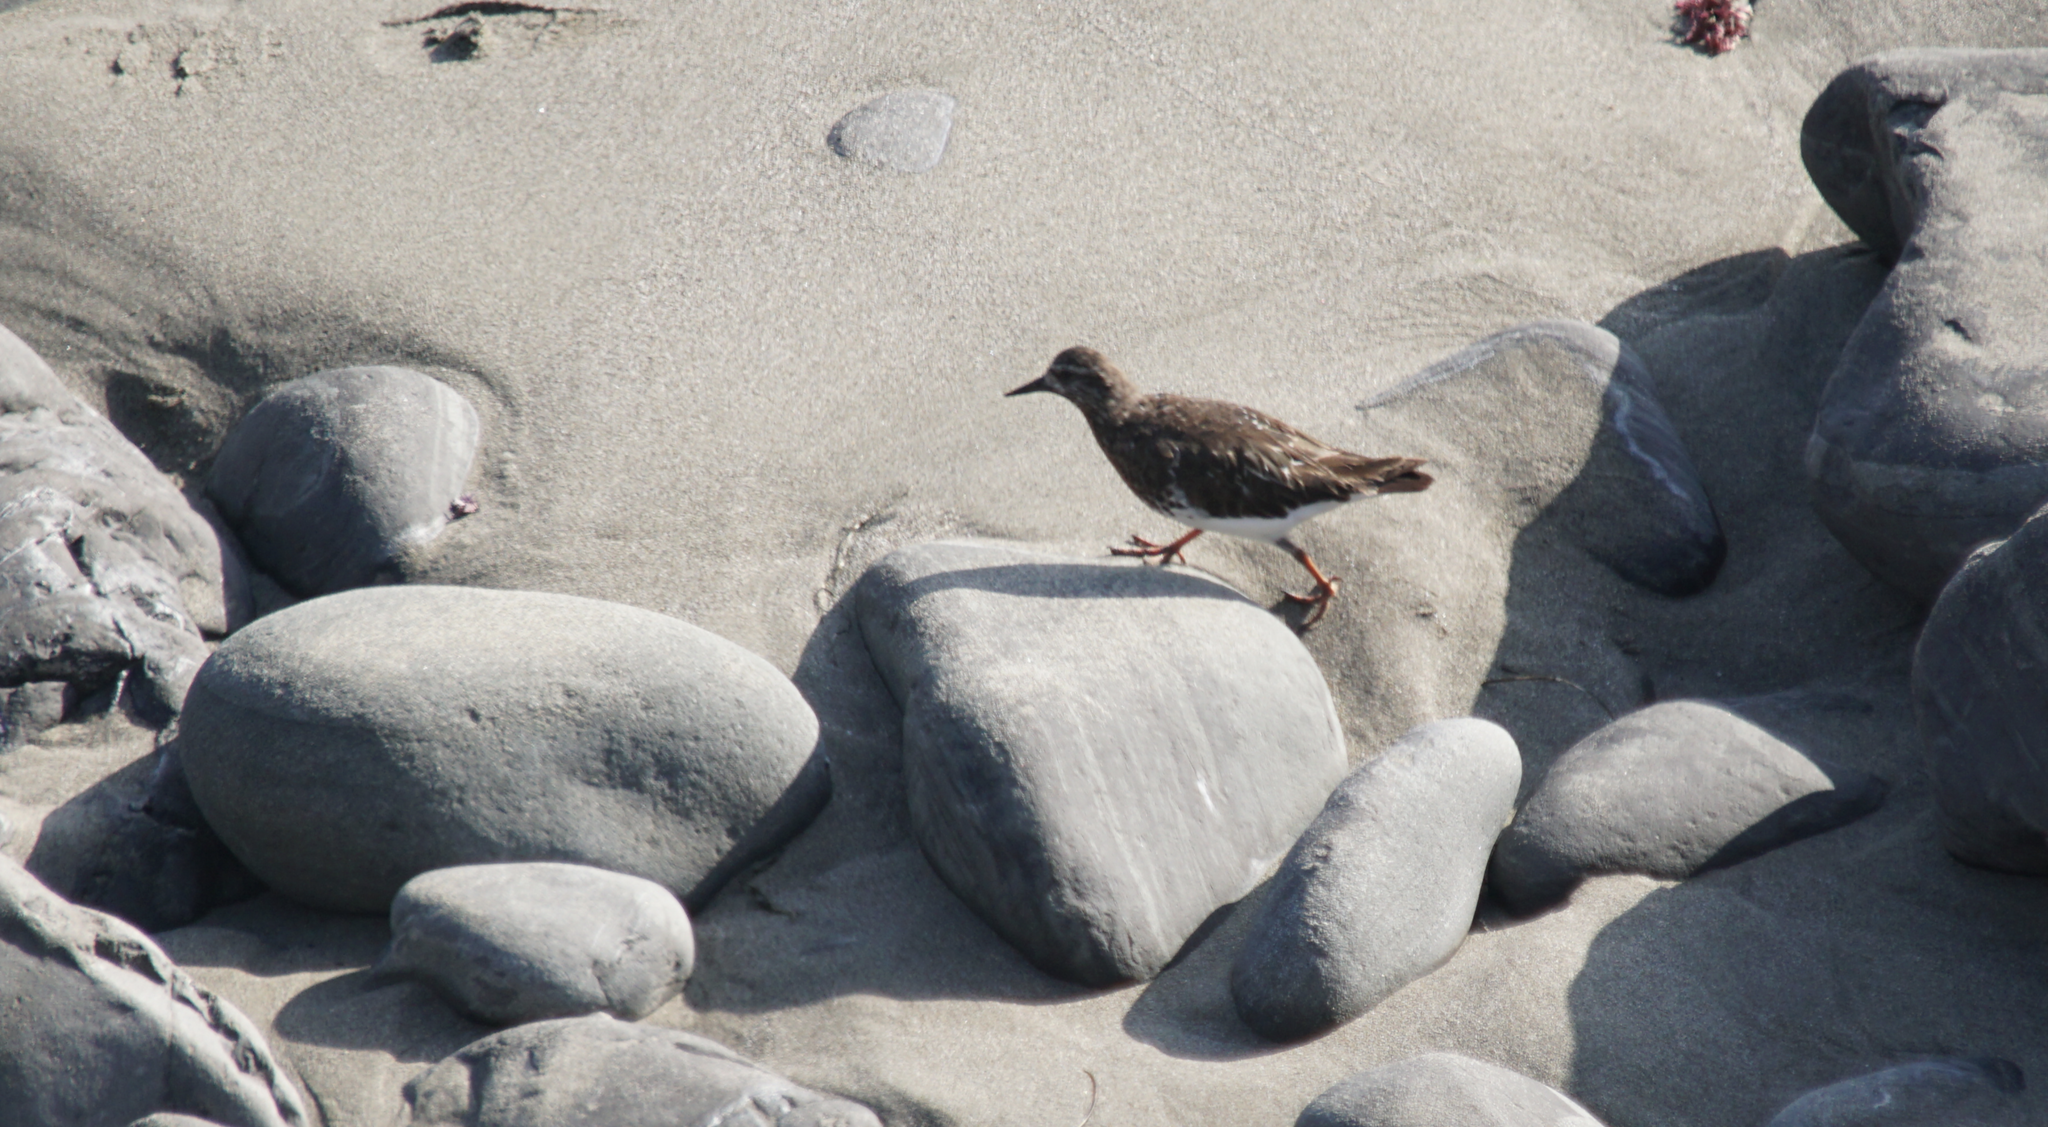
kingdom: Animalia
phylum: Chordata
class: Aves
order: Charadriiformes
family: Scolopacidae
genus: Arenaria
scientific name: Arenaria melanocephala
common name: Black turnstone
